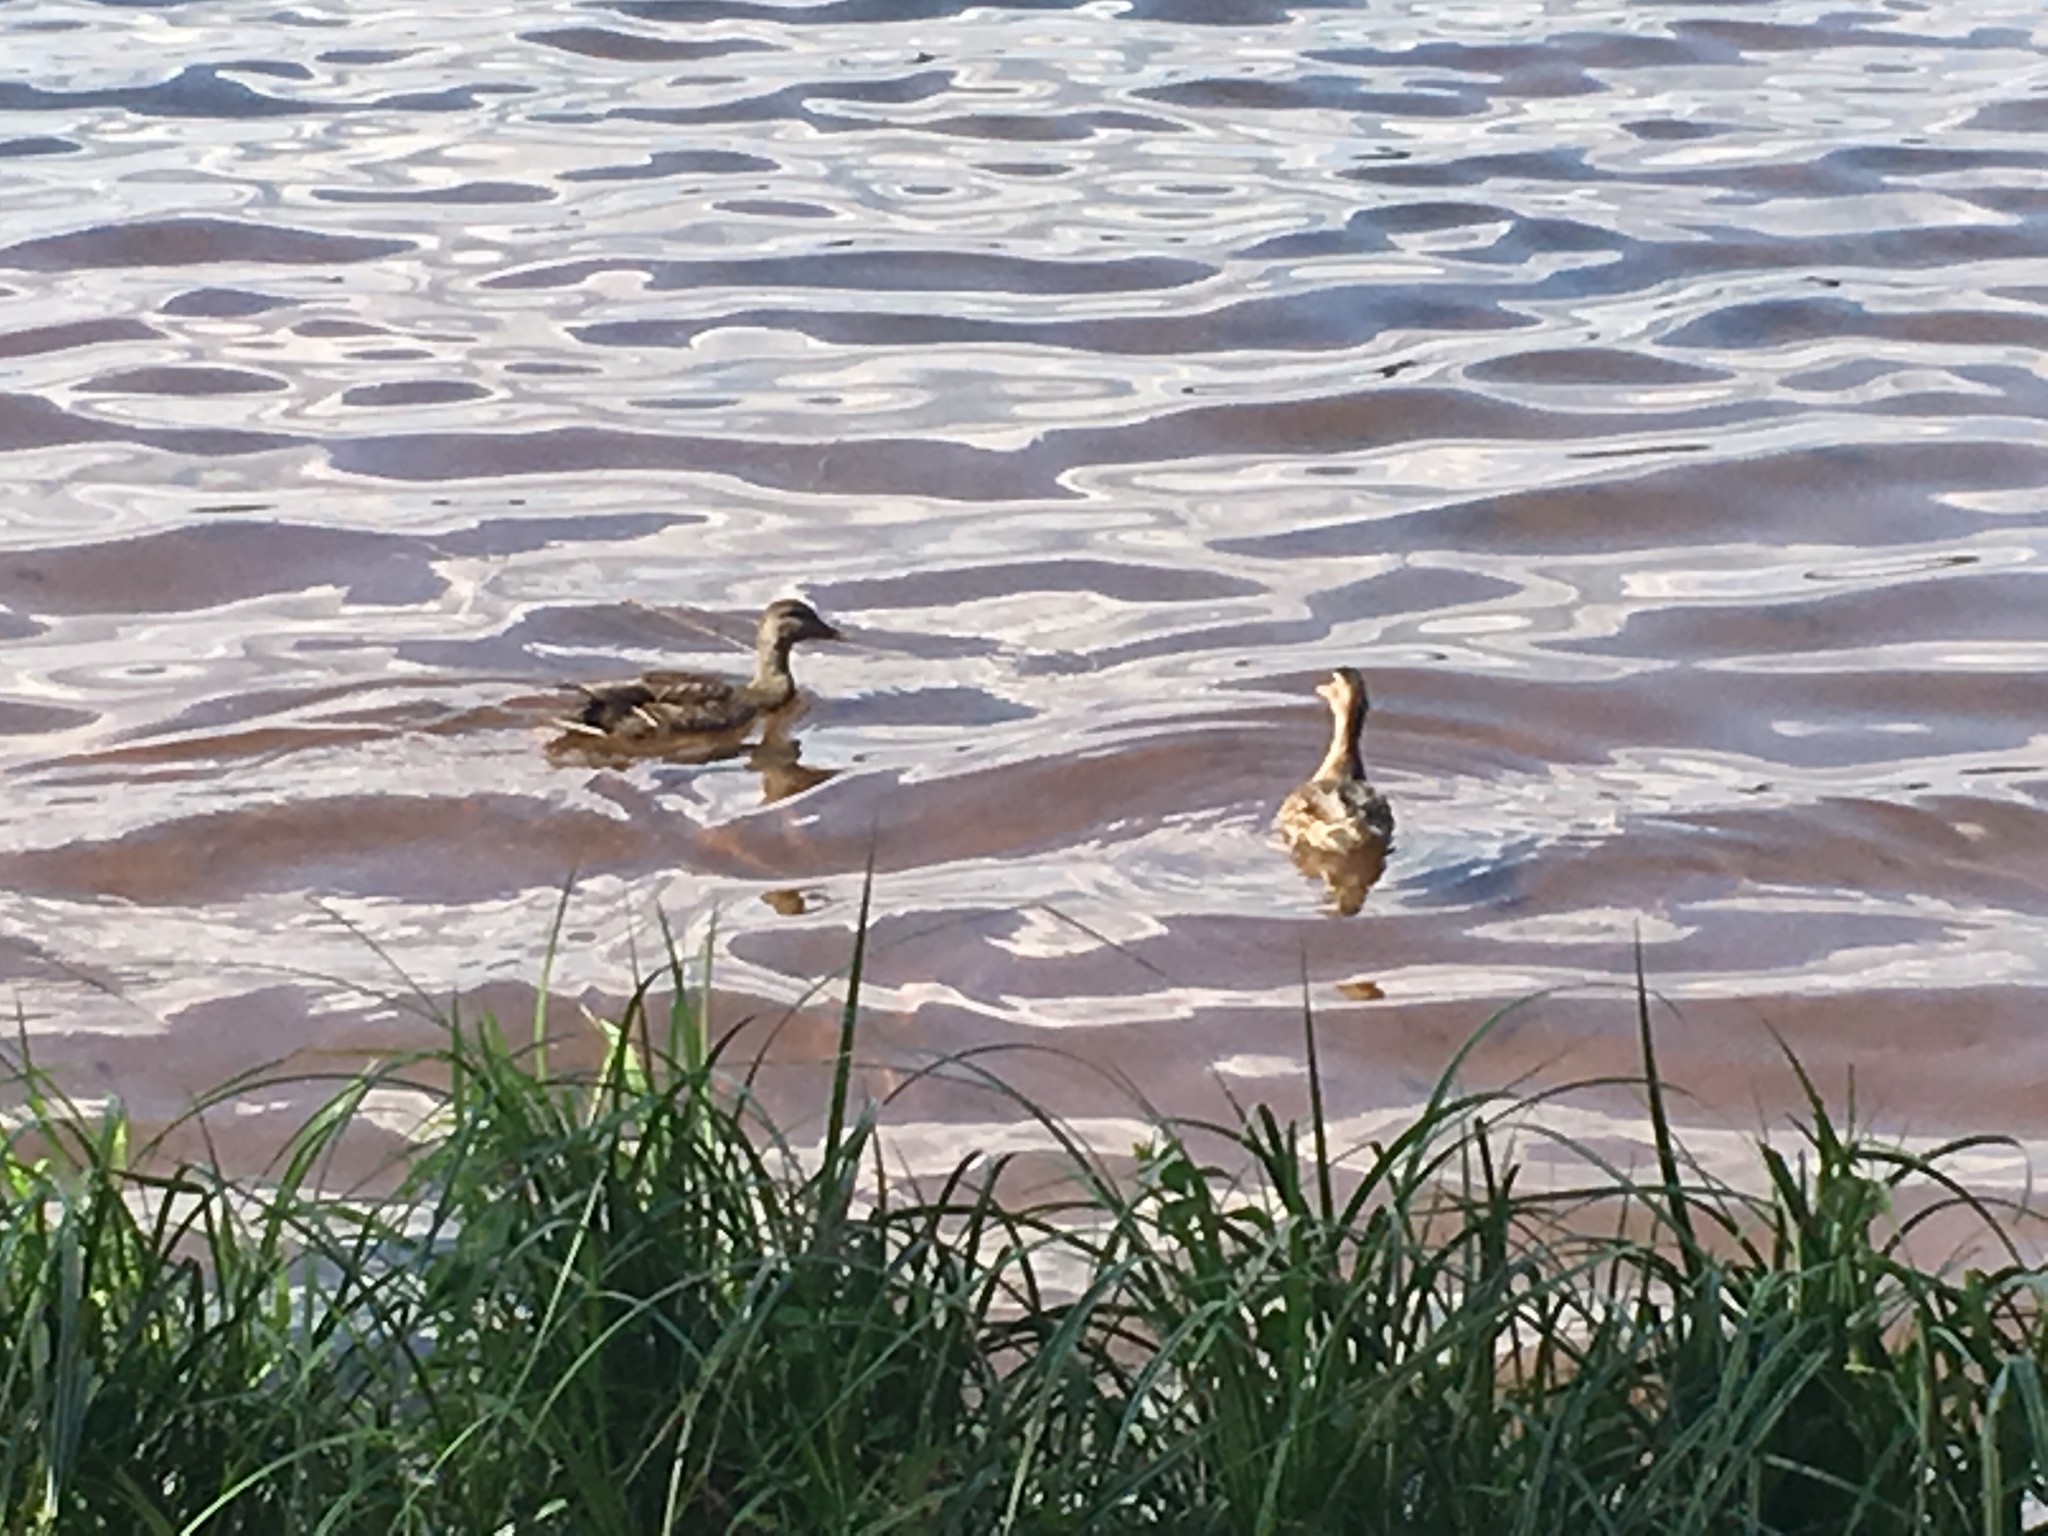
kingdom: Animalia
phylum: Chordata
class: Aves
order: Anseriformes
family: Anatidae
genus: Anas
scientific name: Anas platyrhynchos
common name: Mallard
